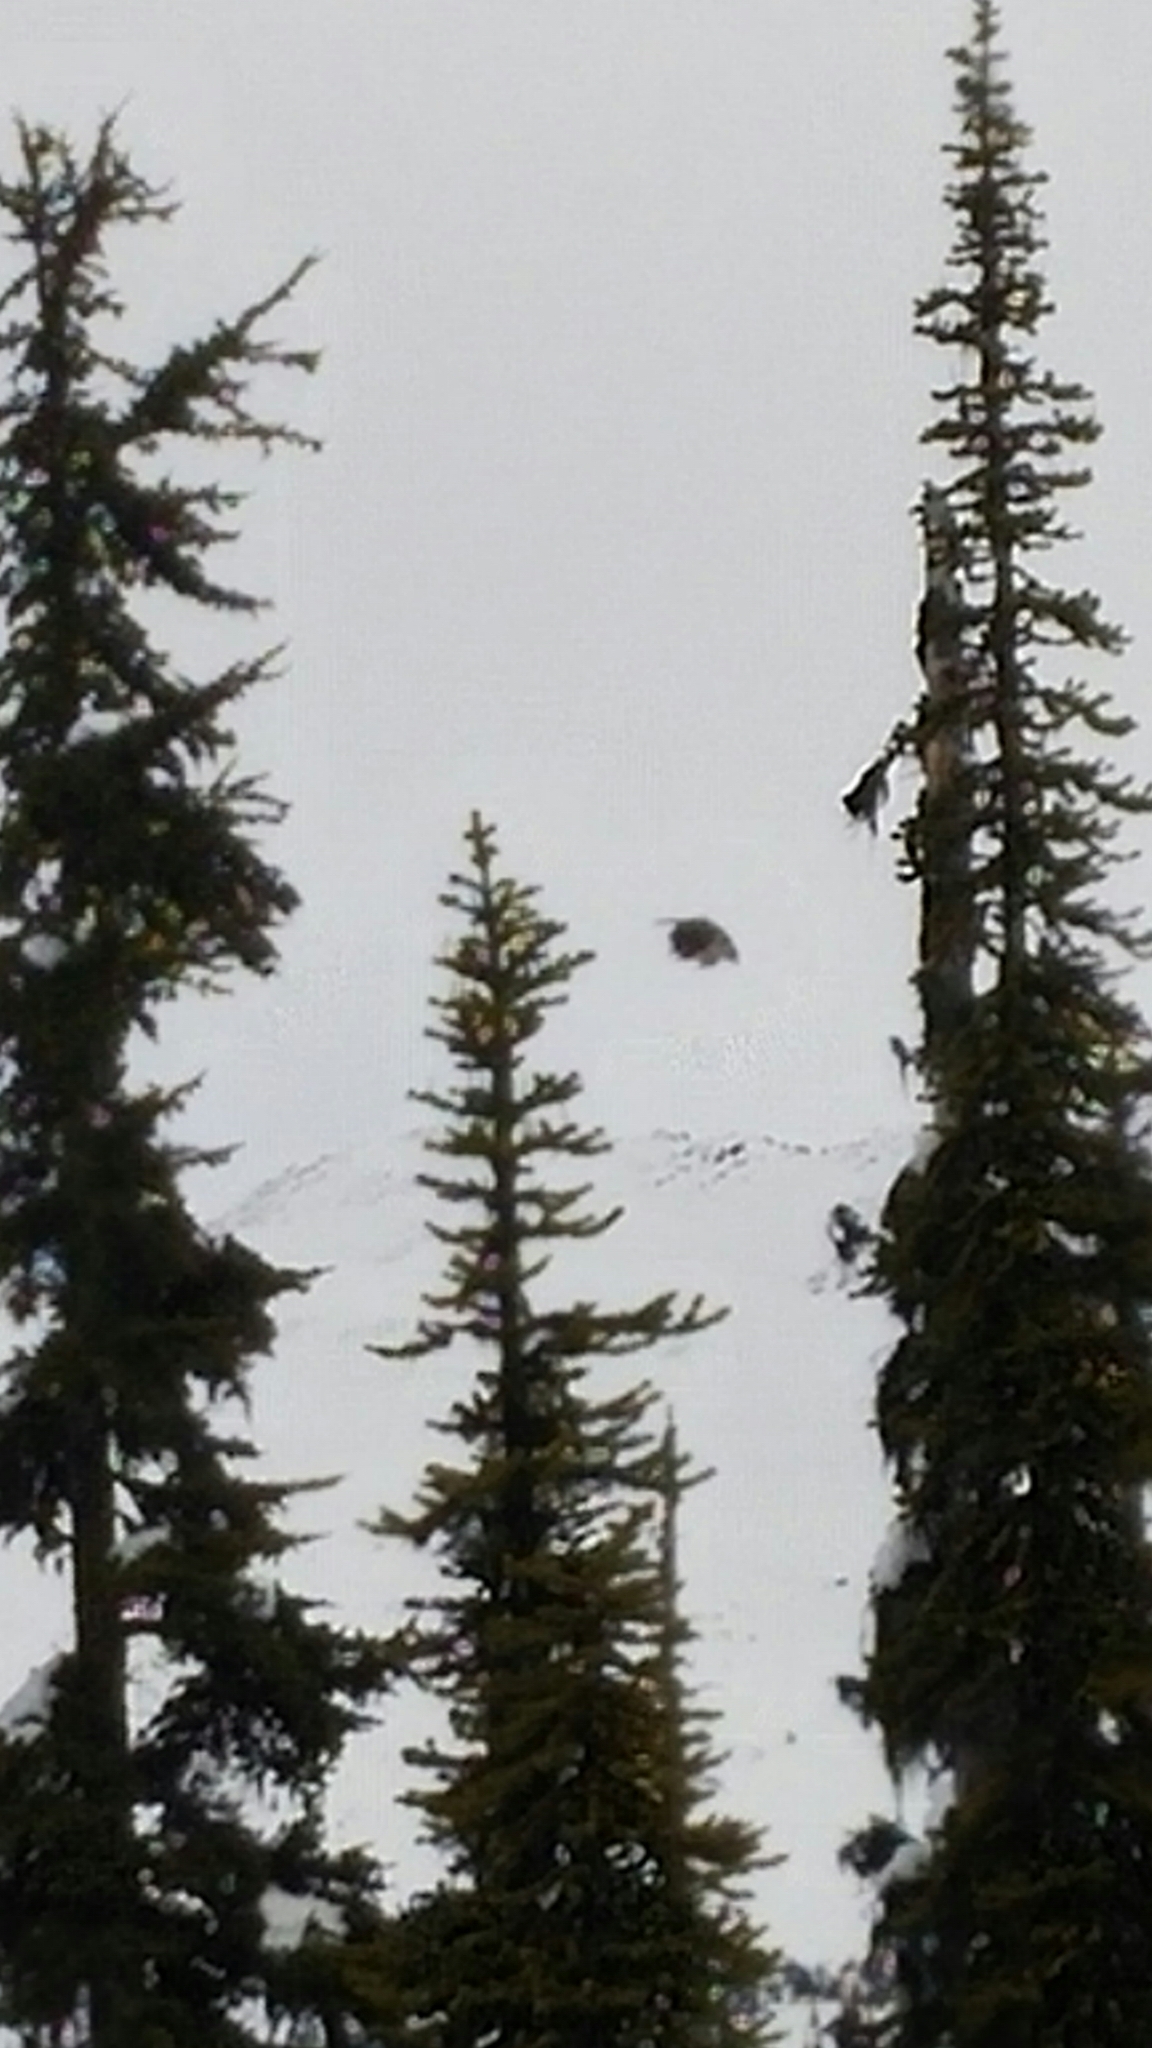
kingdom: Animalia
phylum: Chordata
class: Aves
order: Passeriformes
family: Corvidae
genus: Perisoreus
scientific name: Perisoreus canadensis
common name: Gray jay
